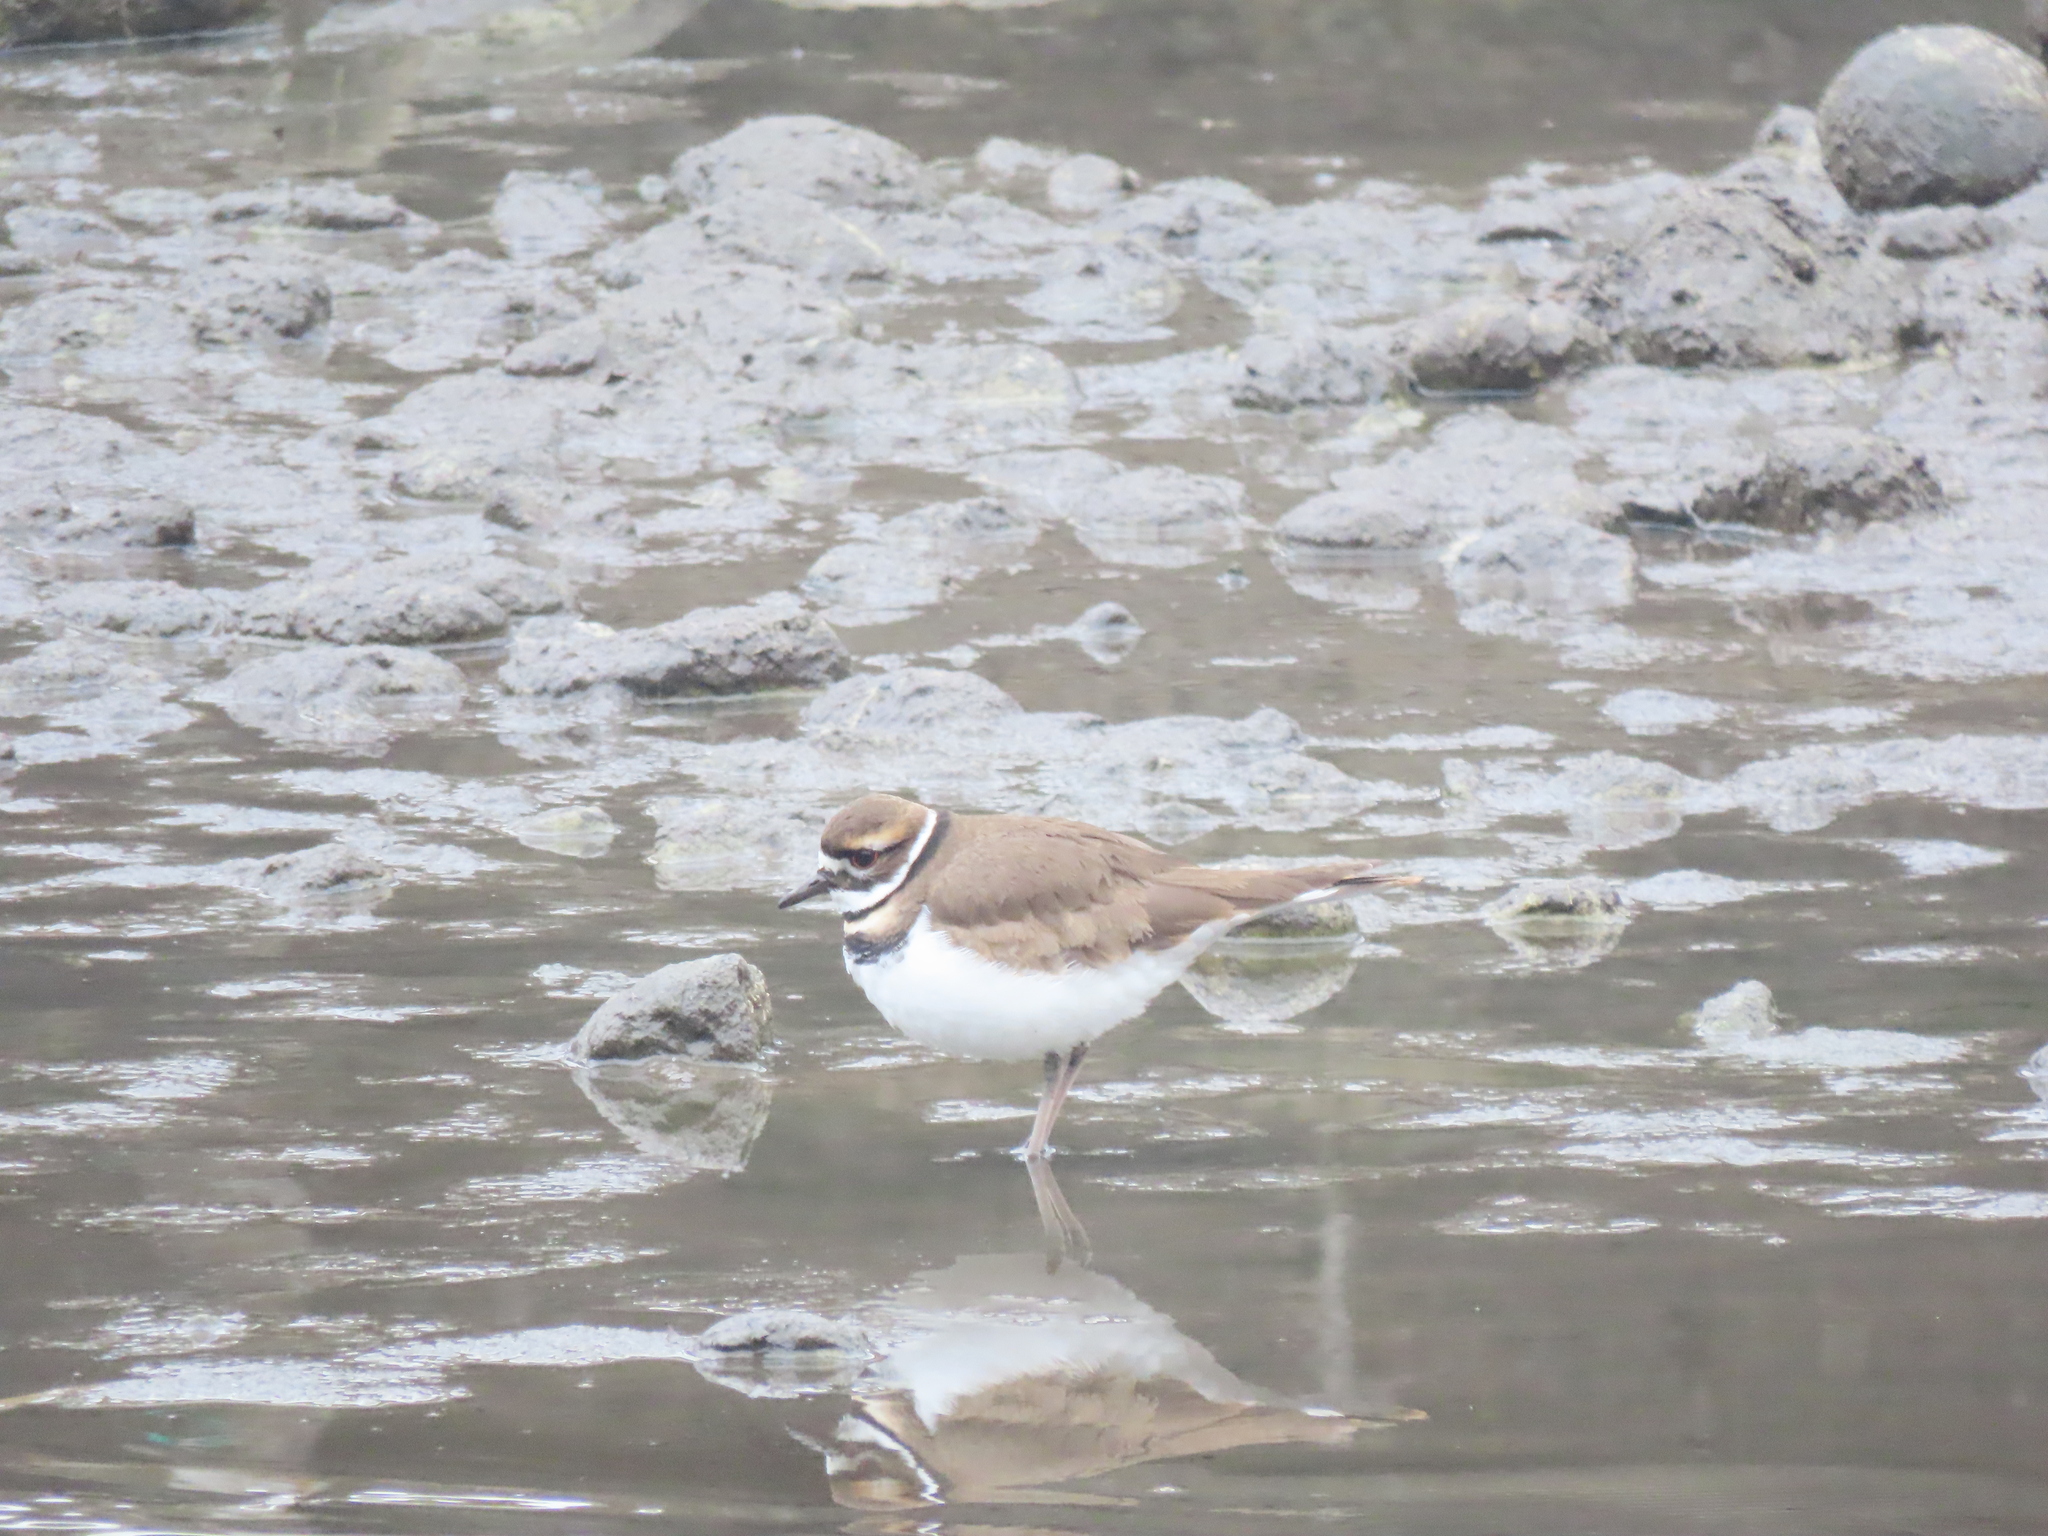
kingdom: Animalia
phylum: Chordata
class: Aves
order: Charadriiformes
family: Charadriidae
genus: Charadrius
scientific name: Charadrius vociferus
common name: Killdeer
